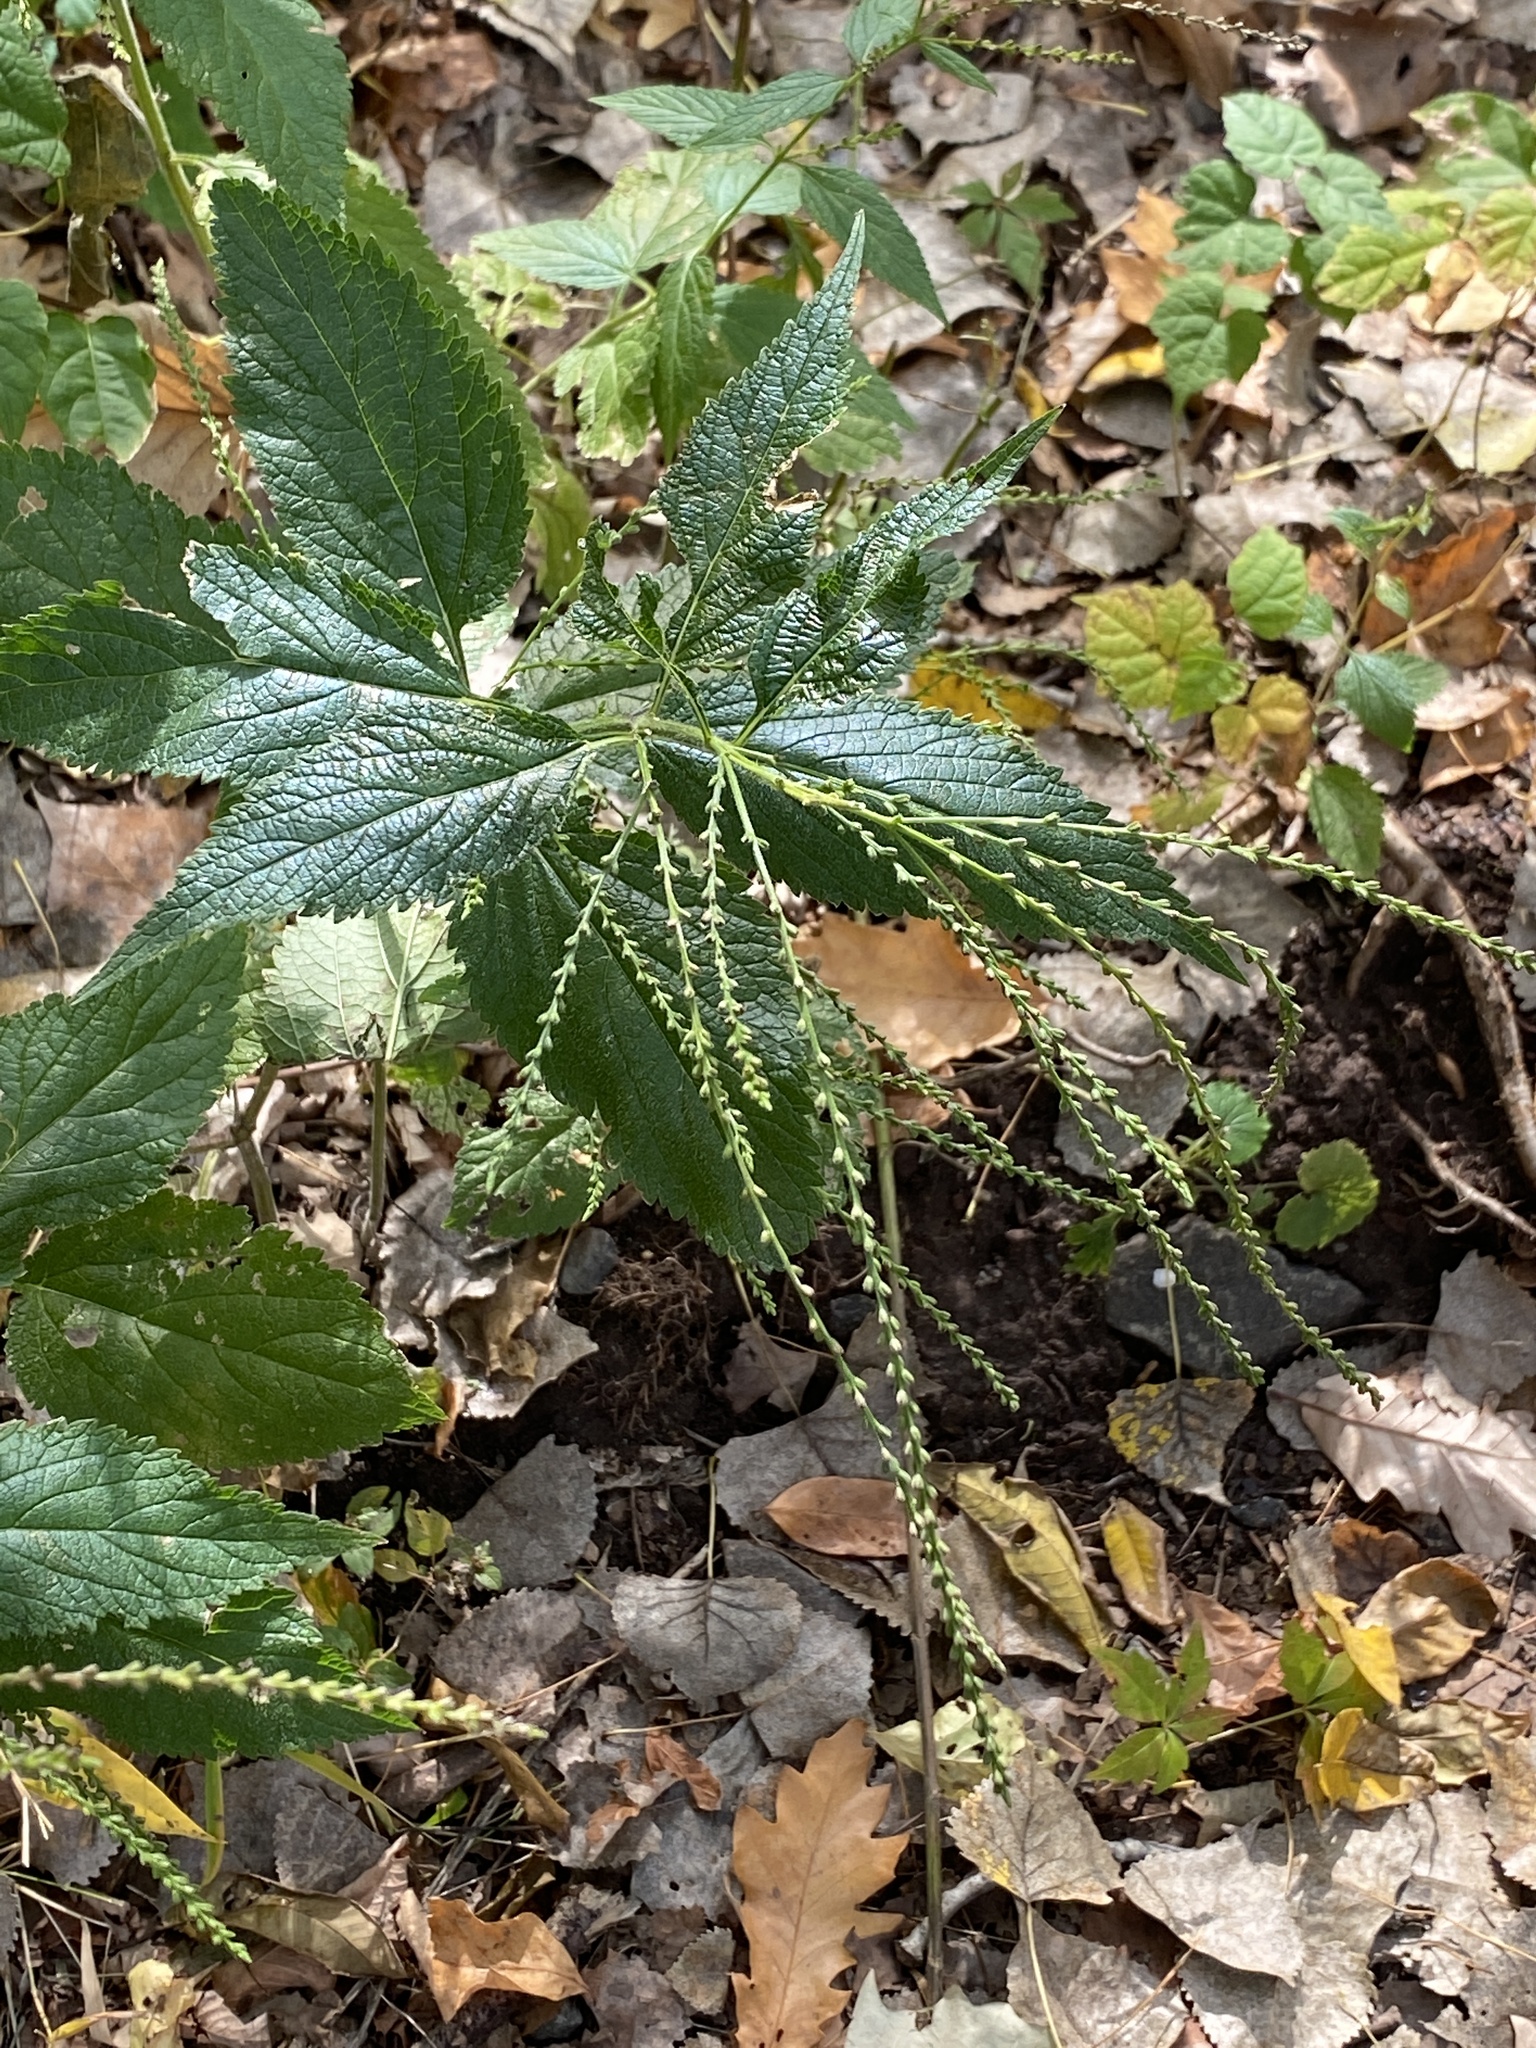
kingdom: Plantae
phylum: Tracheophyta
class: Magnoliopsida
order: Lamiales
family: Verbenaceae
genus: Verbena
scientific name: Verbena urticifolia
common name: Nettle-leaved vervain
